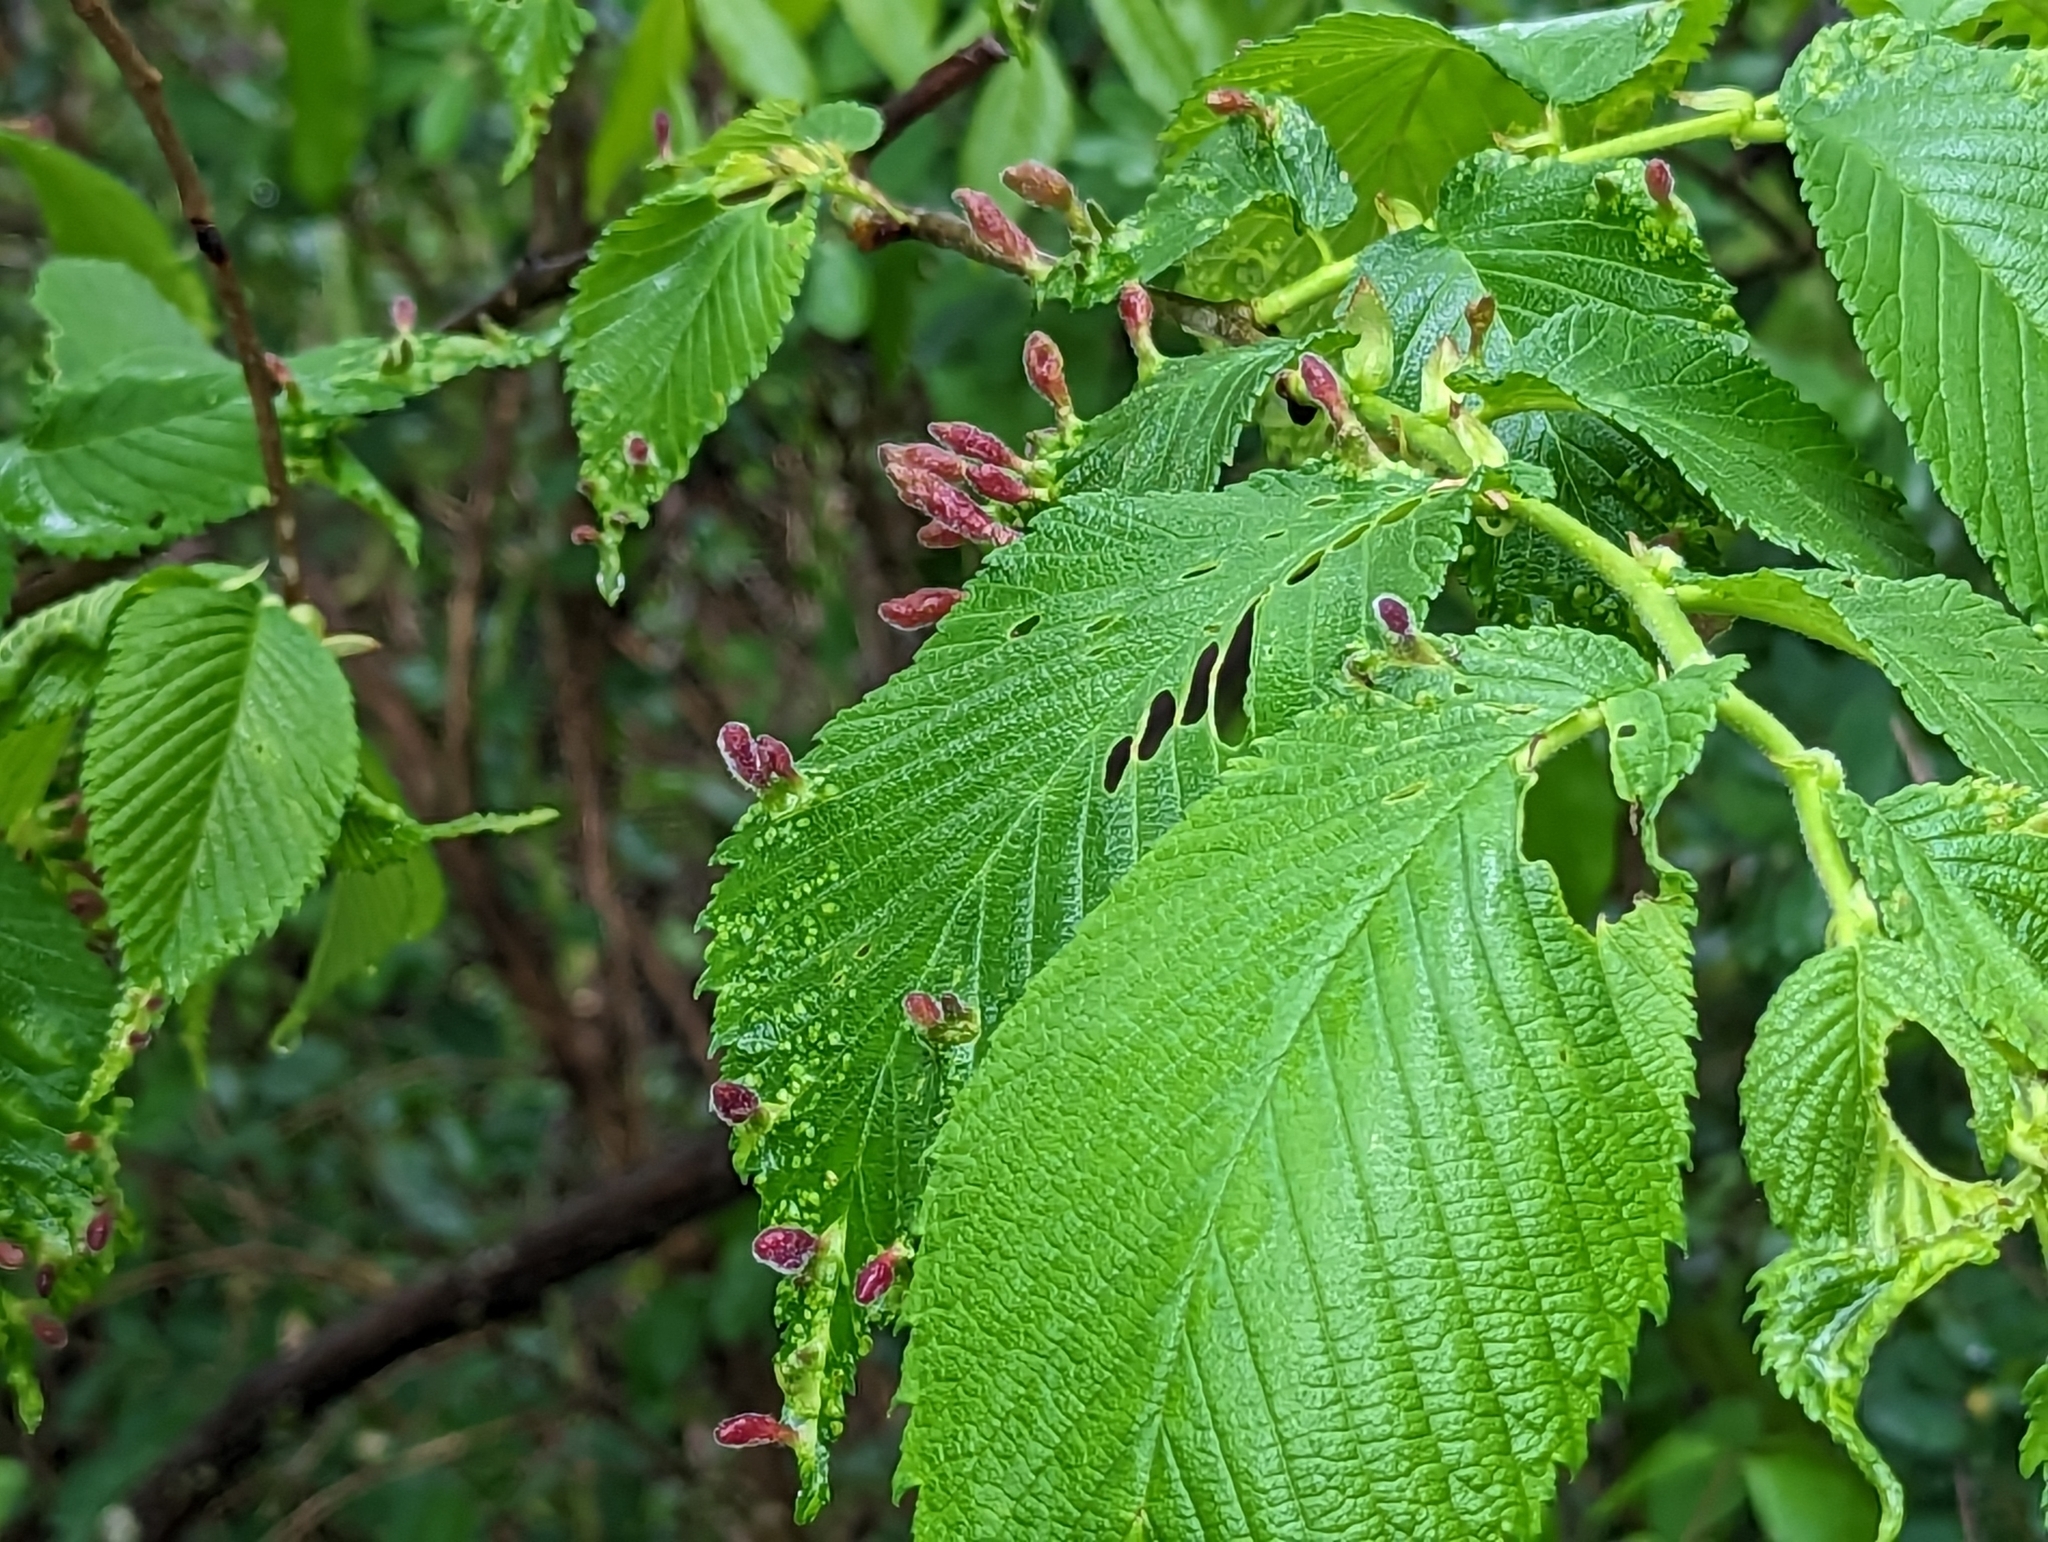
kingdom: Animalia
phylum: Arthropoda
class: Insecta
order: Hemiptera
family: Aphididae
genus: Tetraneura
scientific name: Tetraneura nigriabdominalis
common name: Aphid
